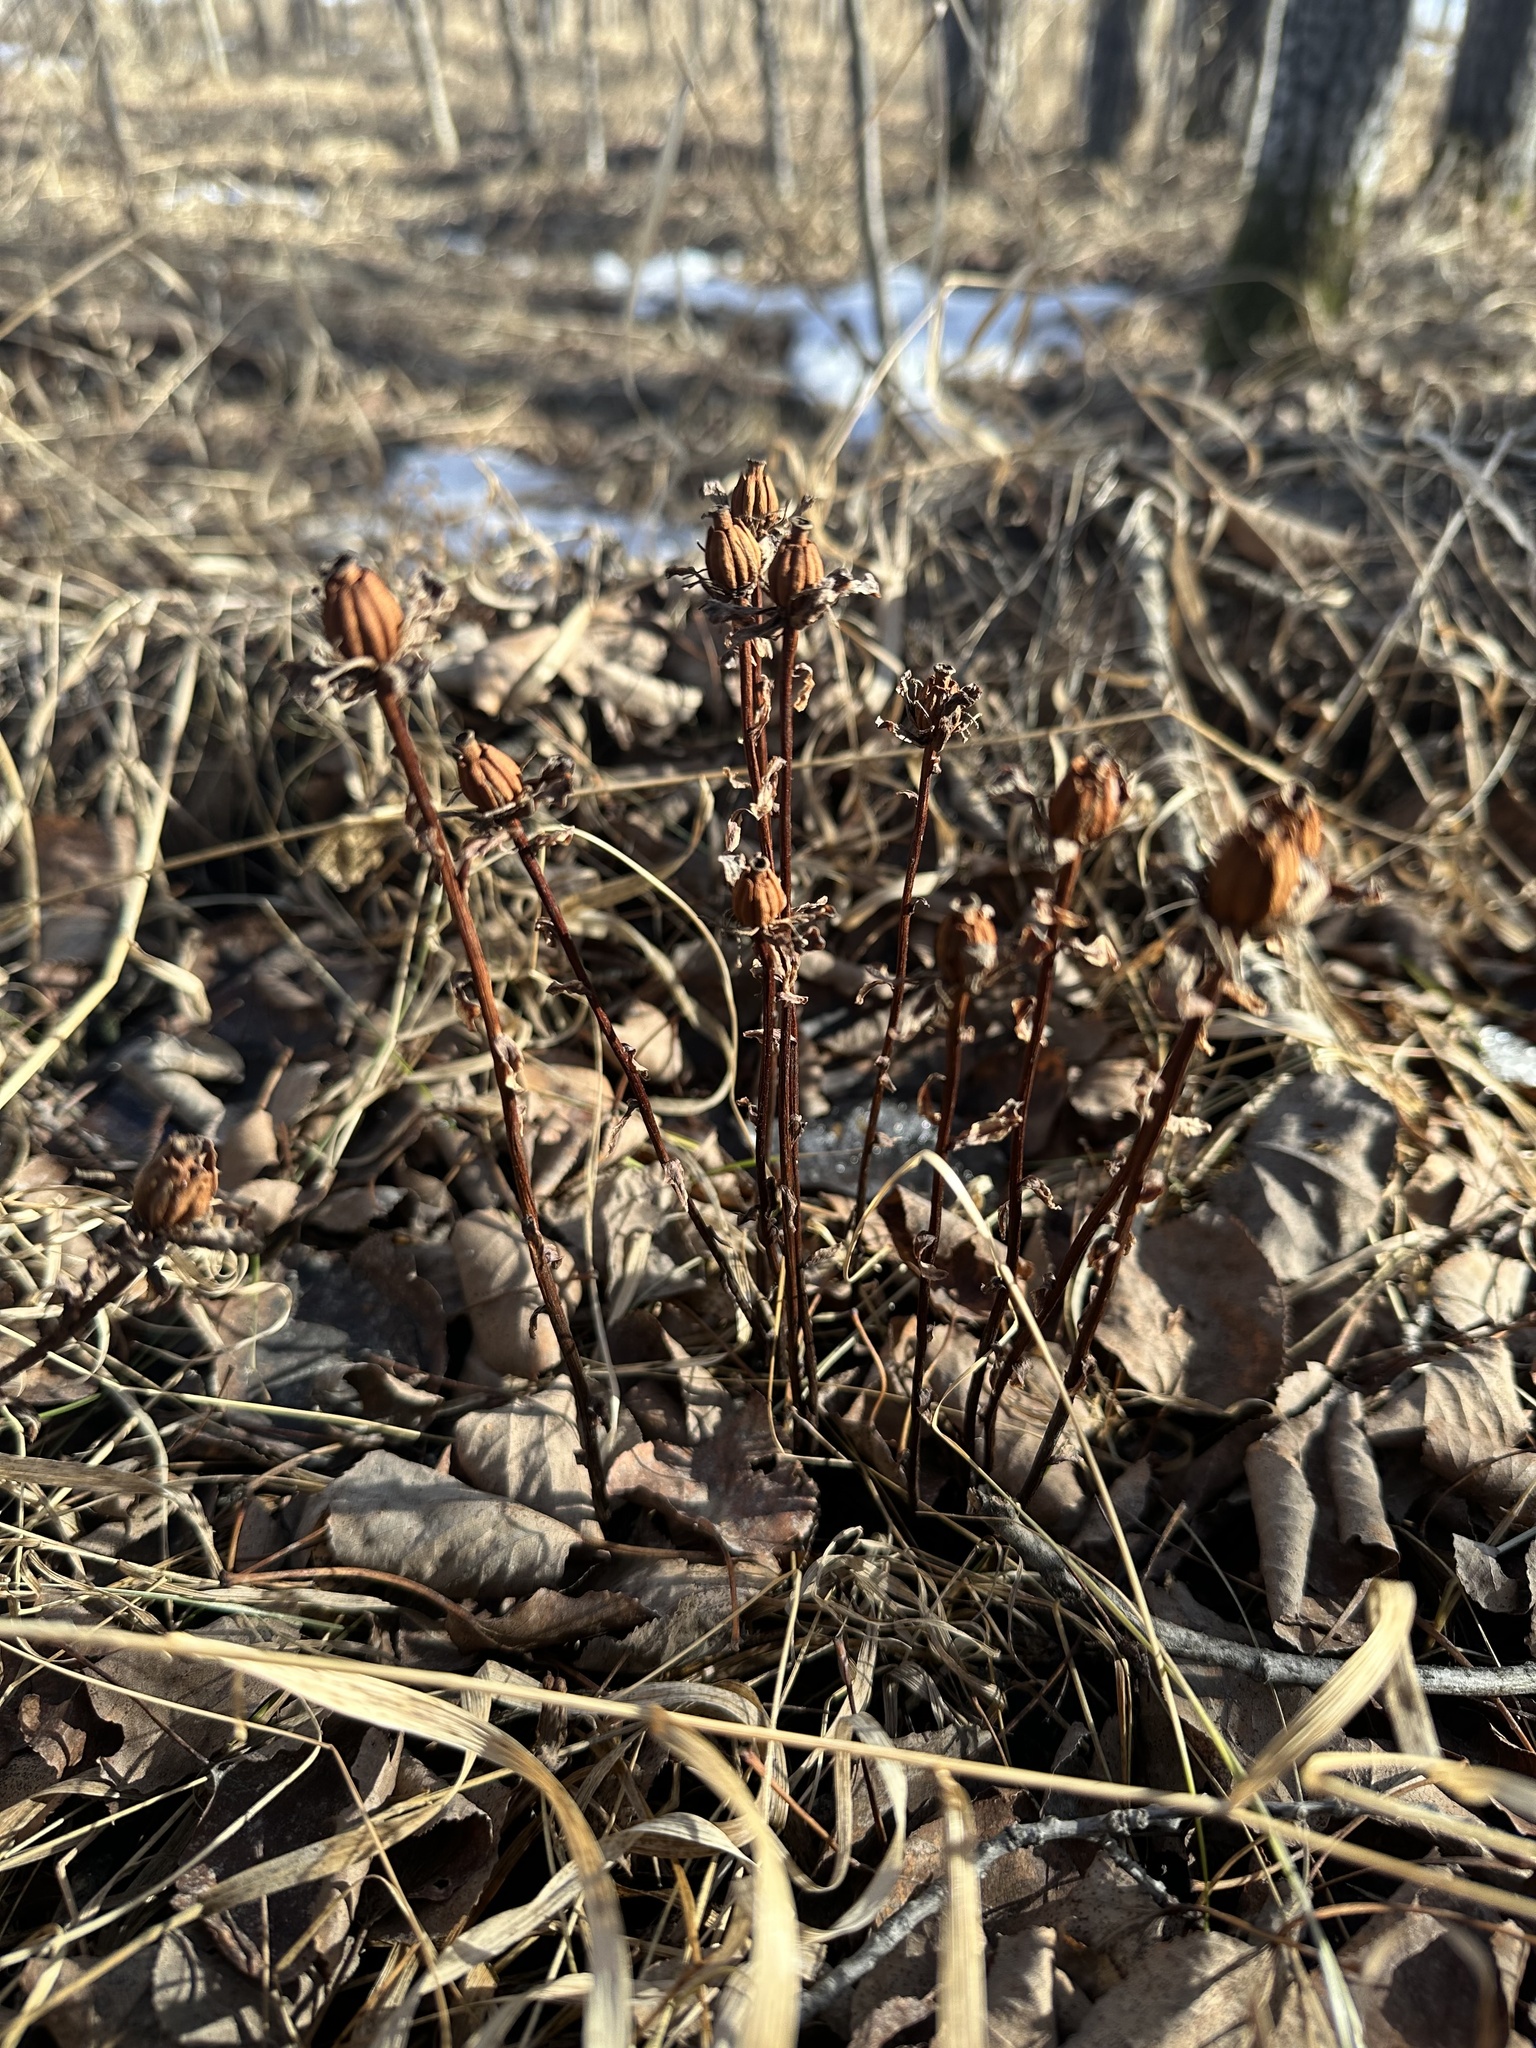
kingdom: Plantae
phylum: Tracheophyta
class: Magnoliopsida
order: Ericales
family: Ericaceae
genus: Monotropa
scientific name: Monotropa uniflora
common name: Convulsion root
